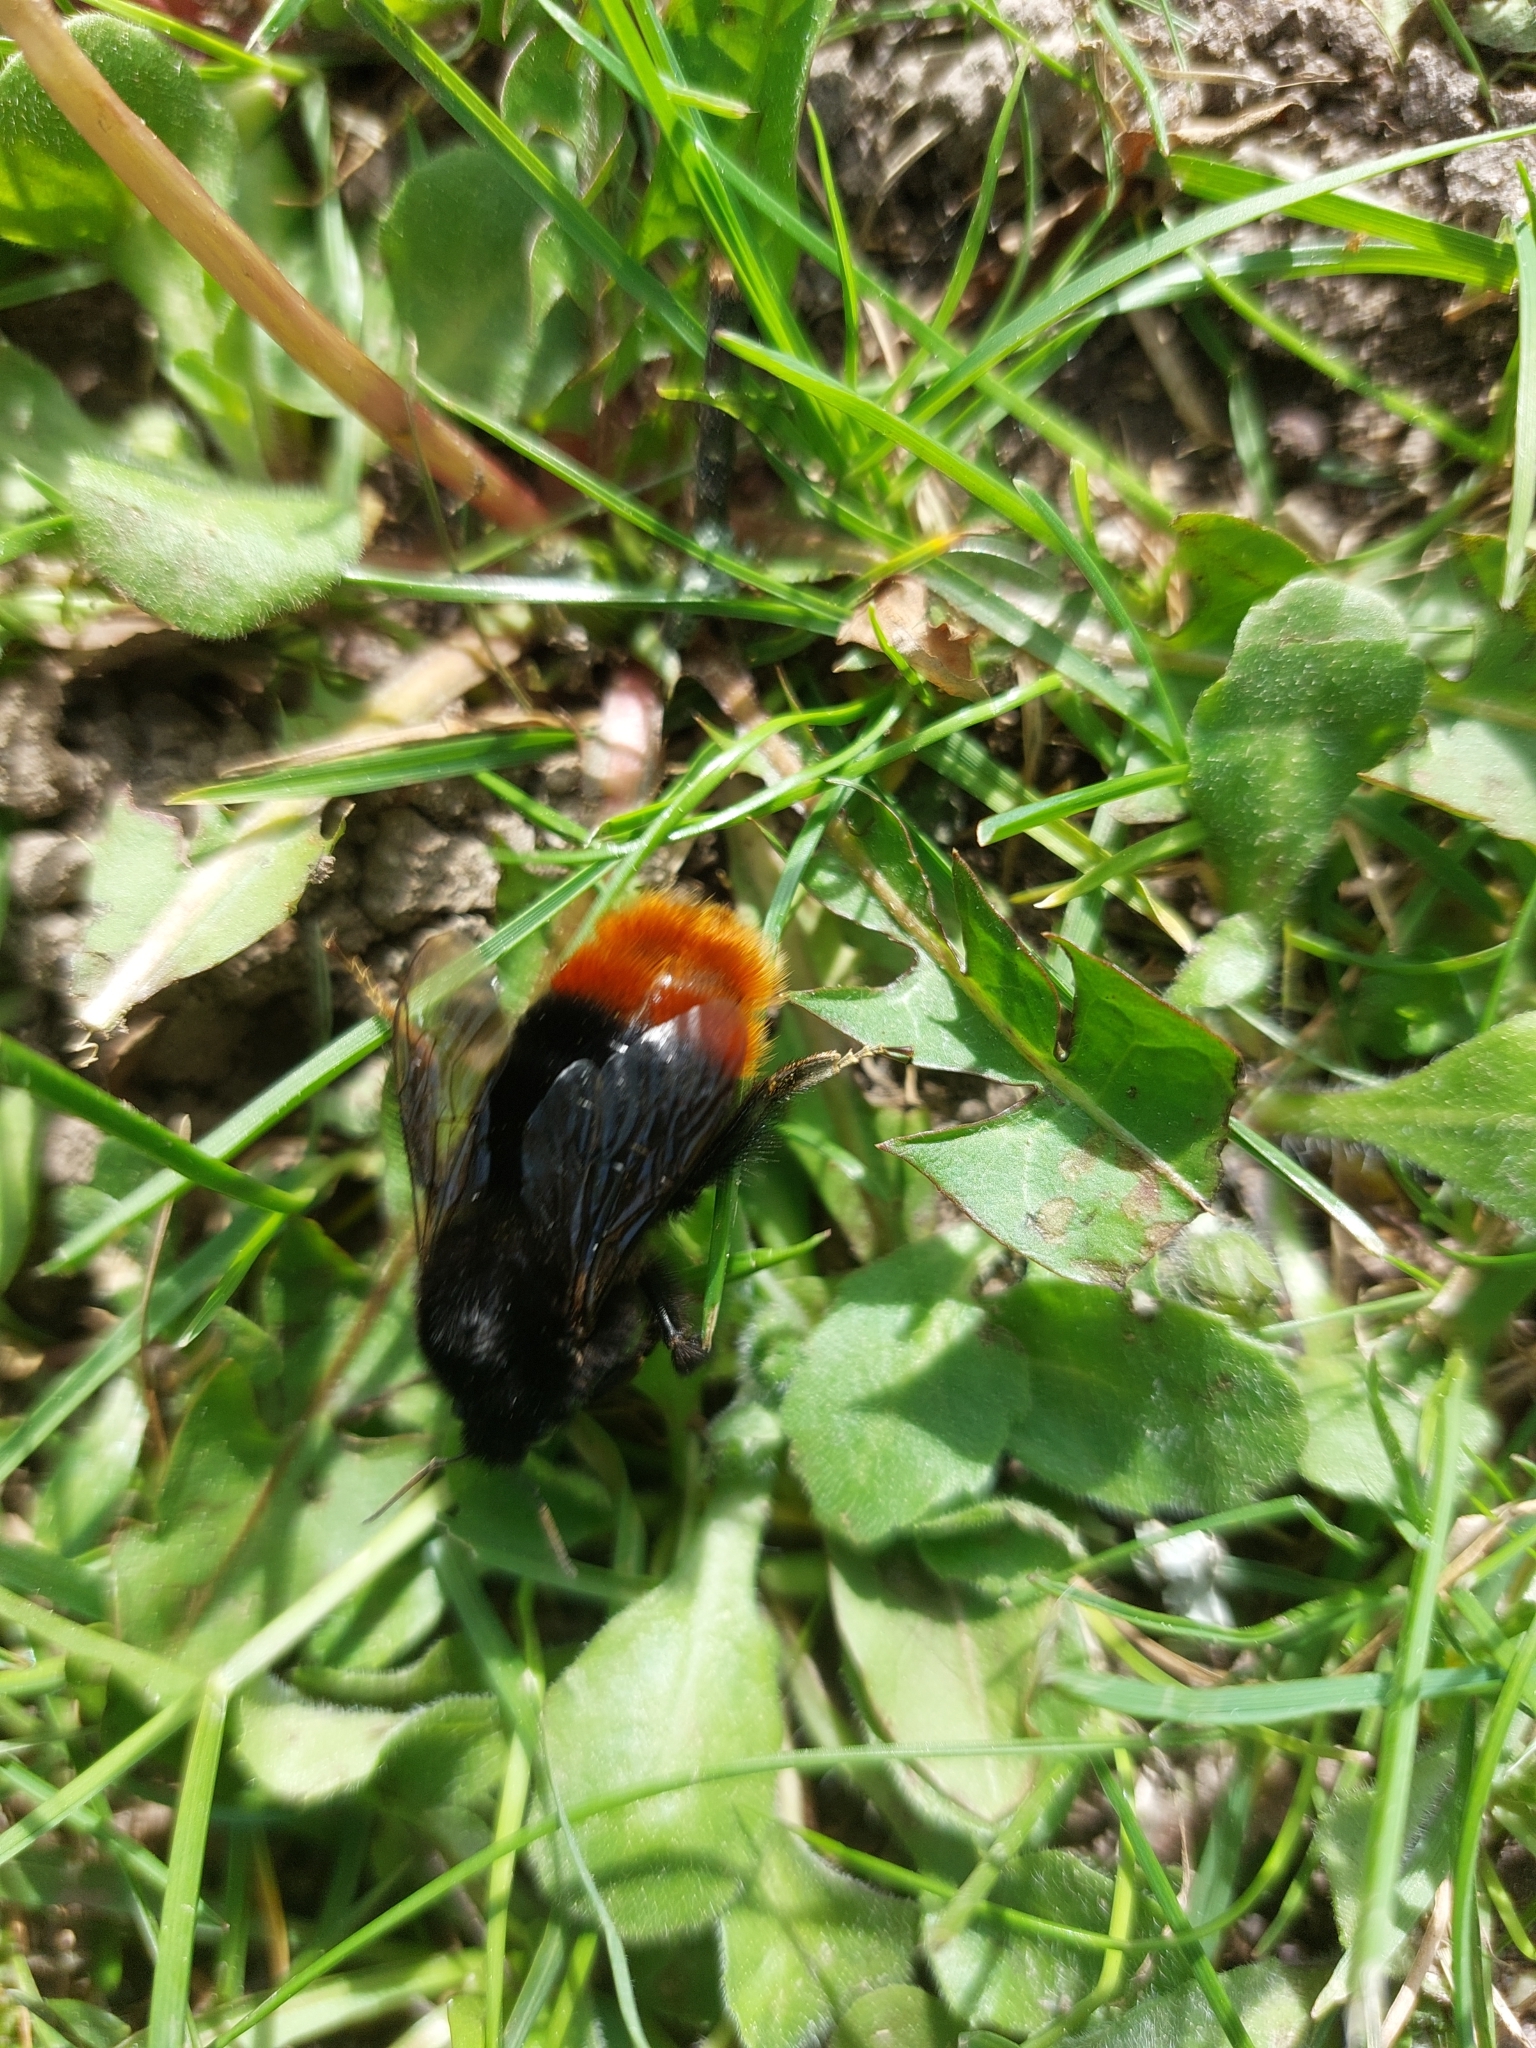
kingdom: Animalia
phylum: Arthropoda
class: Insecta
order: Hymenoptera
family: Apidae
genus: Bombus
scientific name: Bombus lapidarius
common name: Large red-tailed humble-bee
